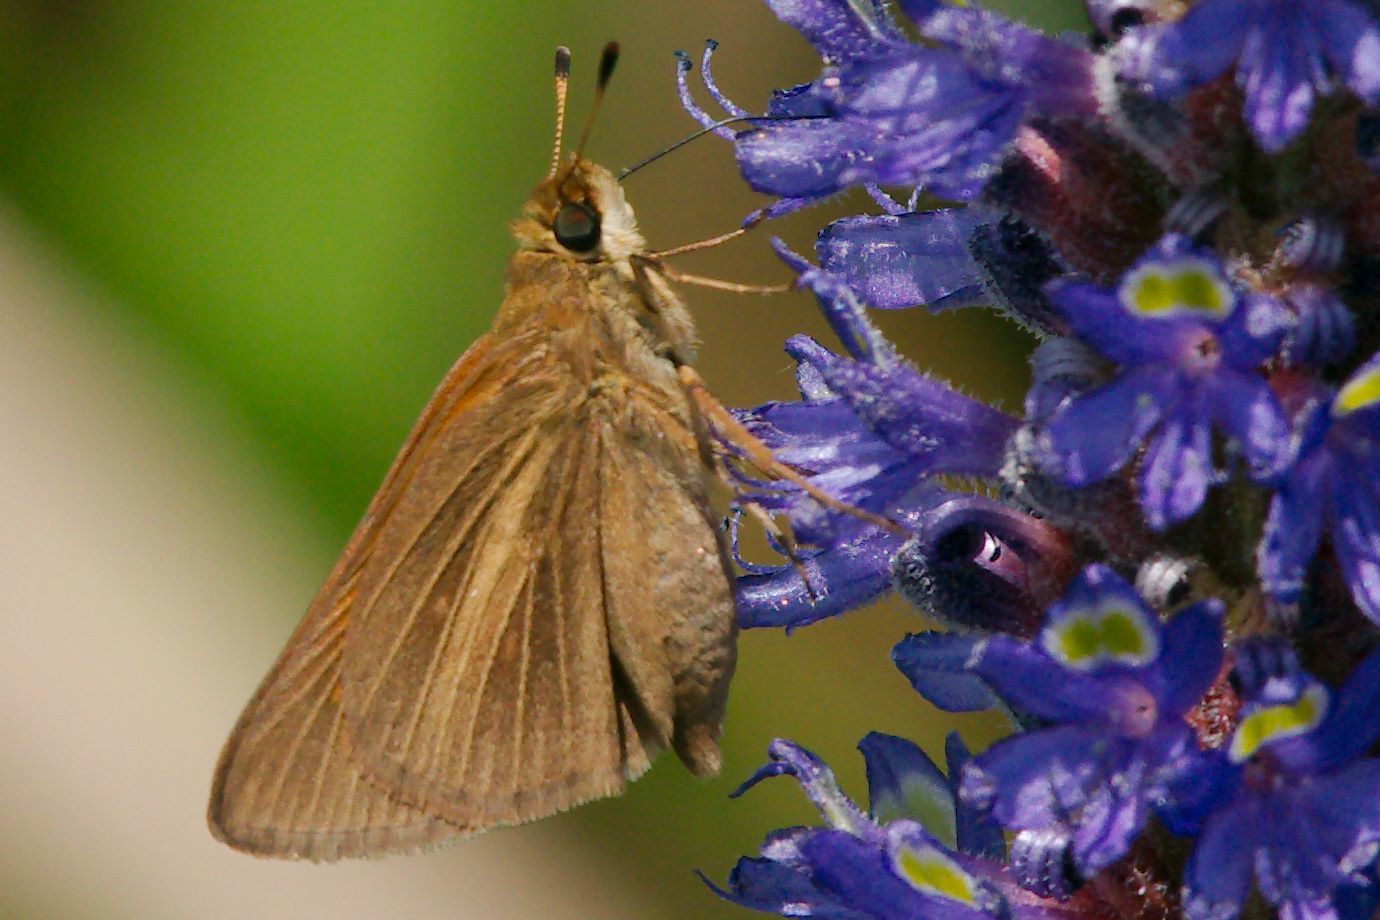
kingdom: Animalia
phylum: Arthropoda
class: Insecta
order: Lepidoptera
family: Hesperiidae
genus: Poanes
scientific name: Poanes aaroni
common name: Aaron's skipper
